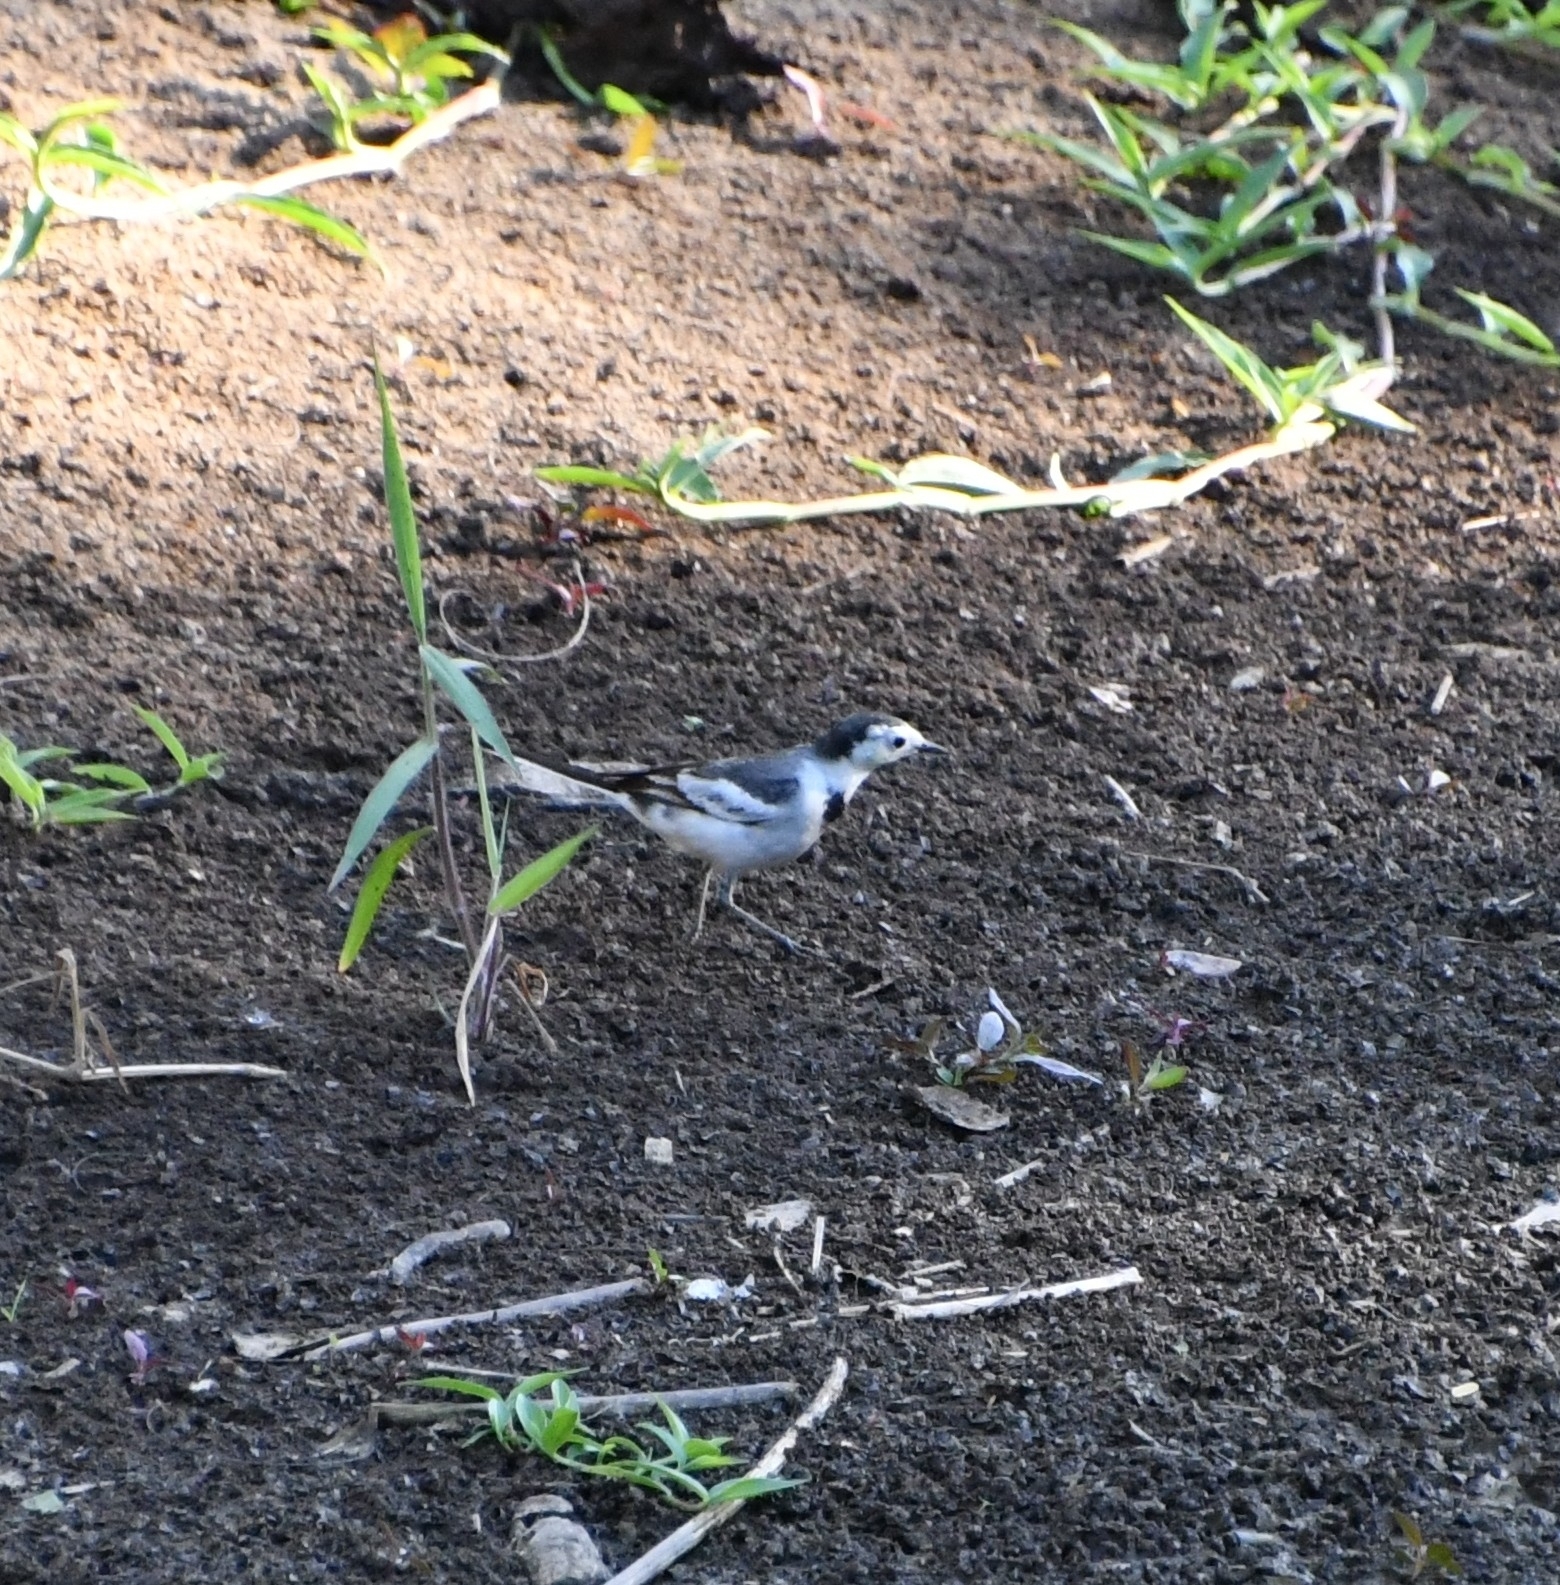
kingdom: Animalia
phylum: Chordata
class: Aves
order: Passeriformes
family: Motacillidae
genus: Motacilla
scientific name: Motacilla alba
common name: White wagtail
